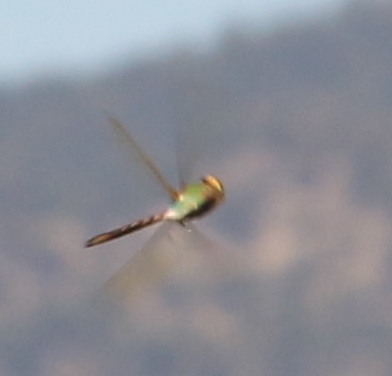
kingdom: Animalia
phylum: Arthropoda
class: Insecta
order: Odonata
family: Aeshnidae
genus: Anax
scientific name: Anax junius
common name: Common green darner
